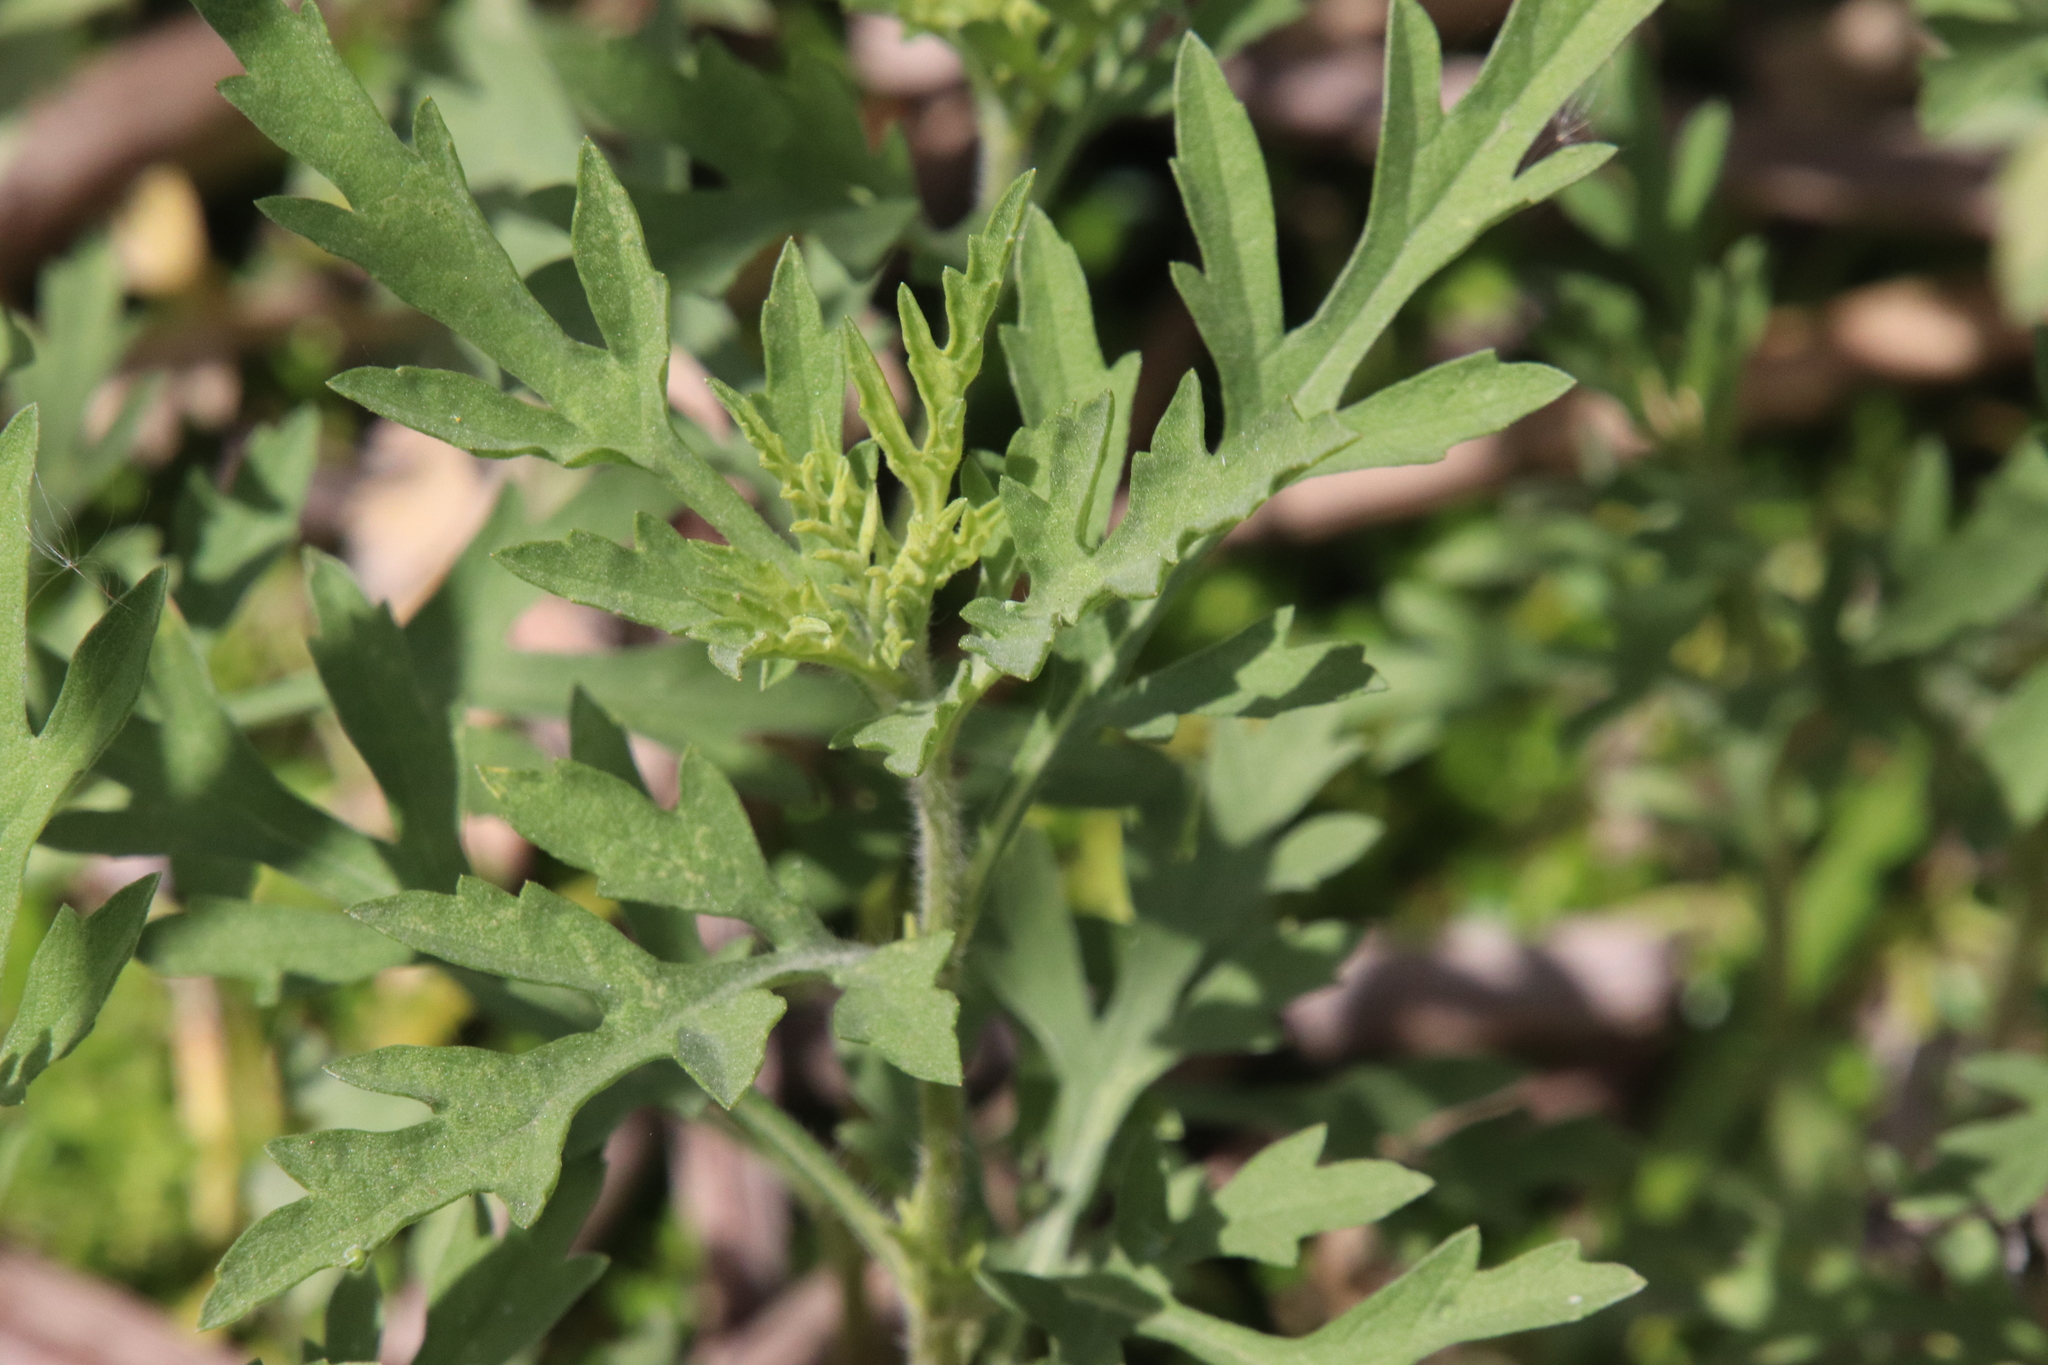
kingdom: Plantae
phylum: Tracheophyta
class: Magnoliopsida
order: Asterales
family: Asteraceae
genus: Ambrosia
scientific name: Ambrosia psilostachya
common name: Perennial ragweed
